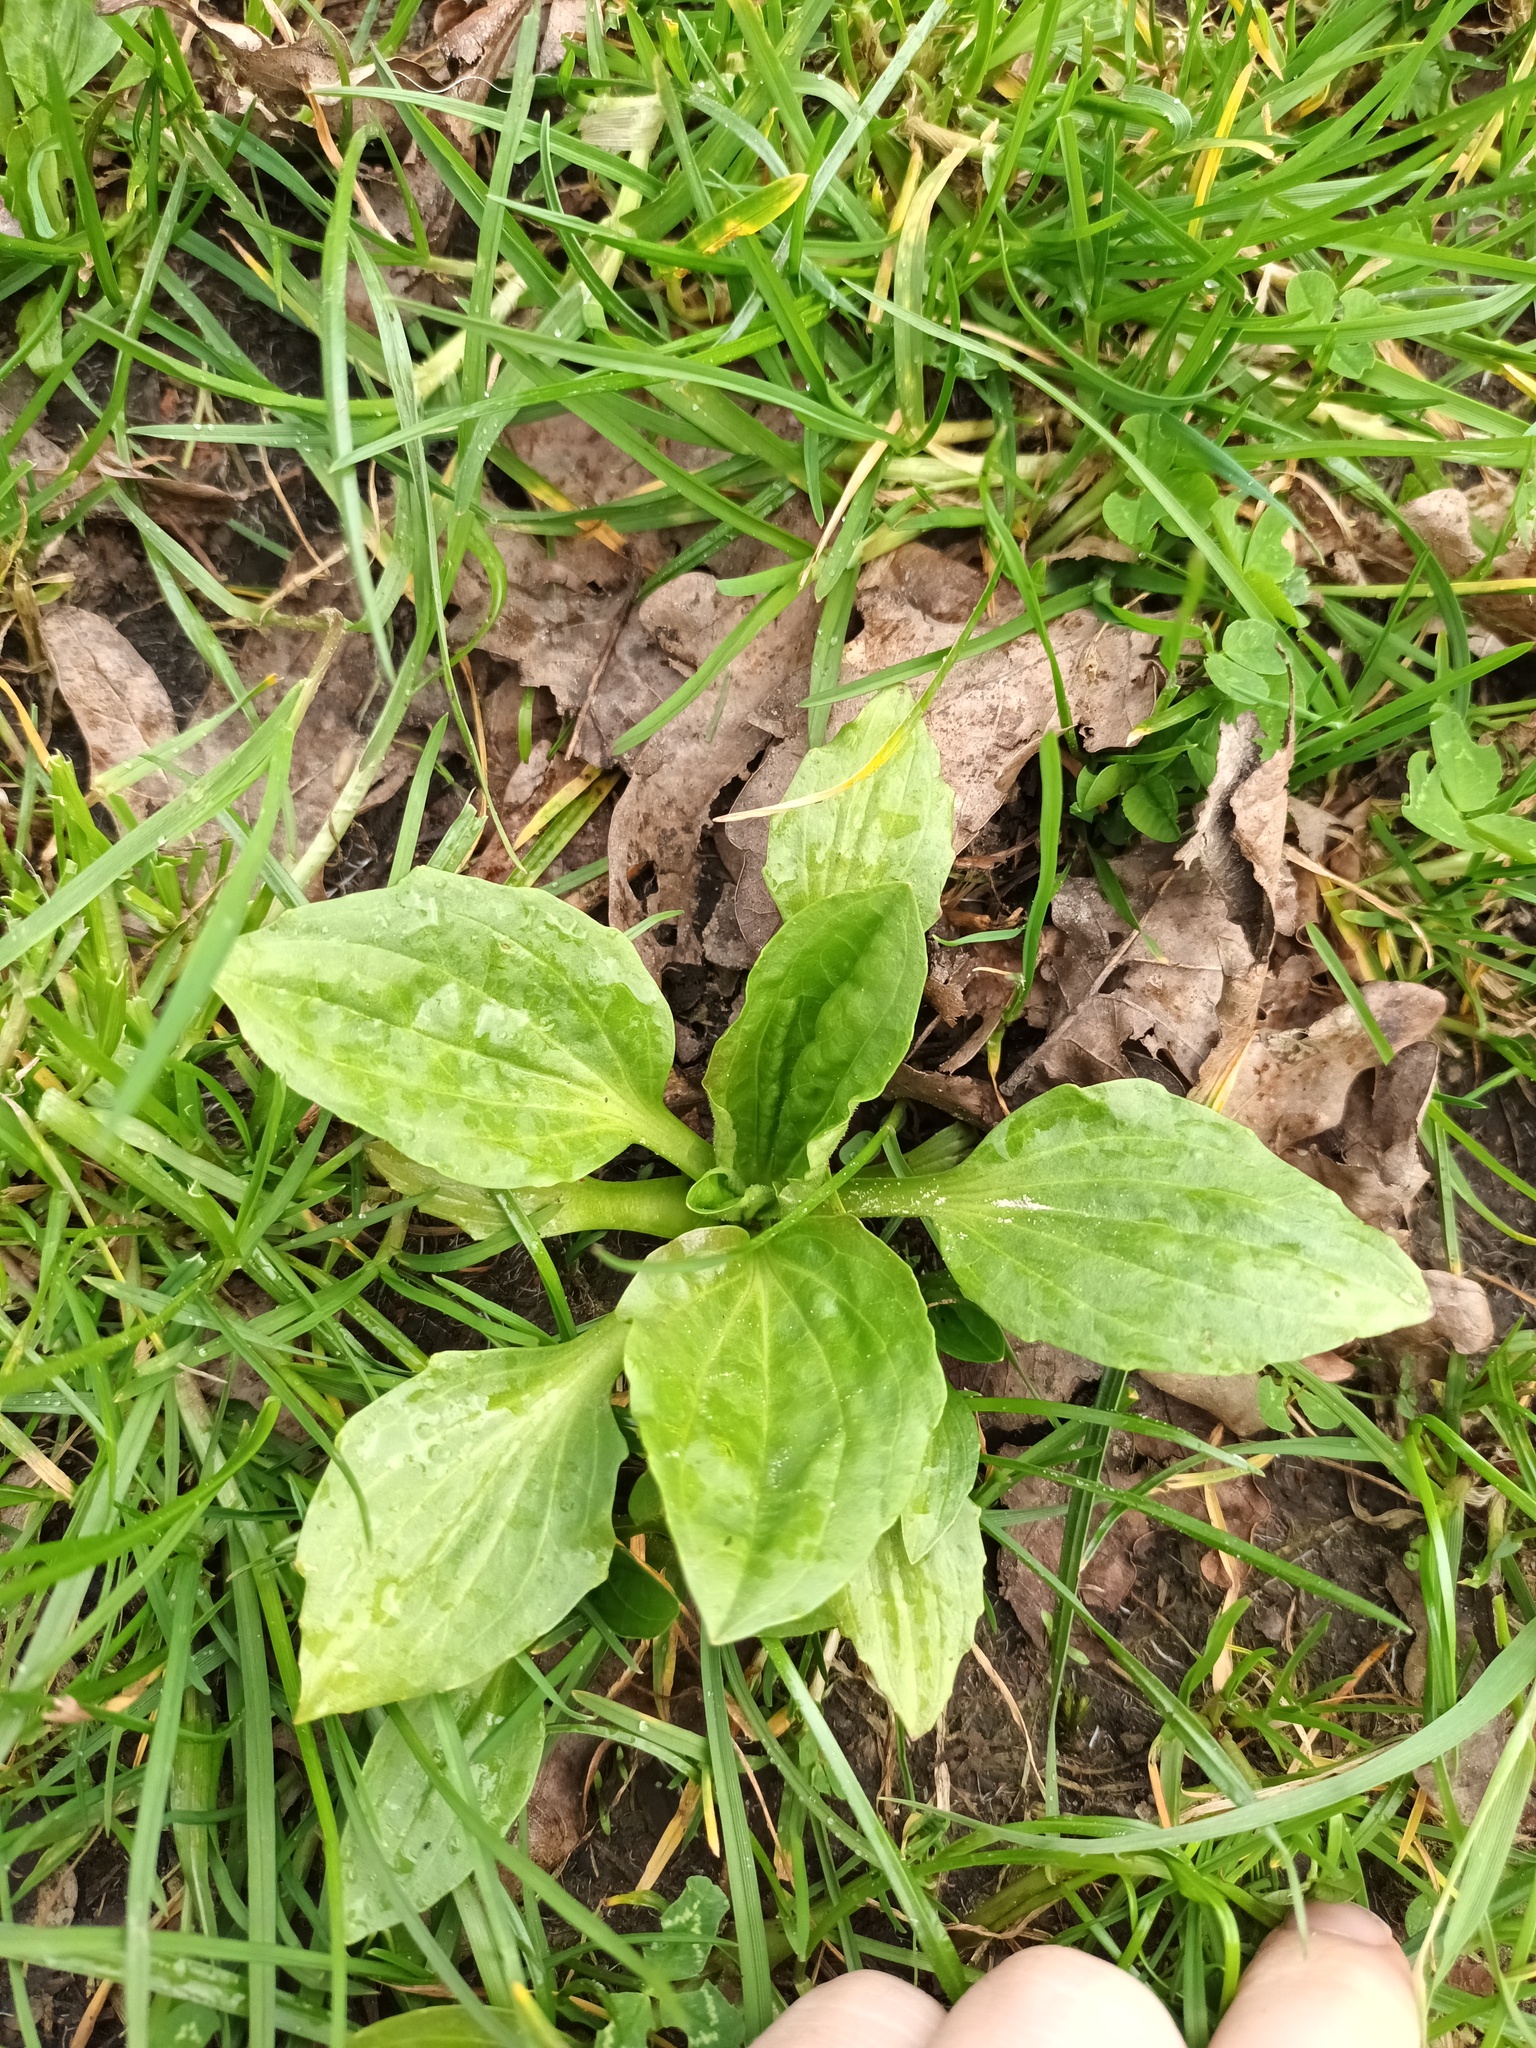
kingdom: Plantae
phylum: Tracheophyta
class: Magnoliopsida
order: Lamiales
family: Plantaginaceae
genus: Plantago
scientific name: Plantago major
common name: Common plantain
